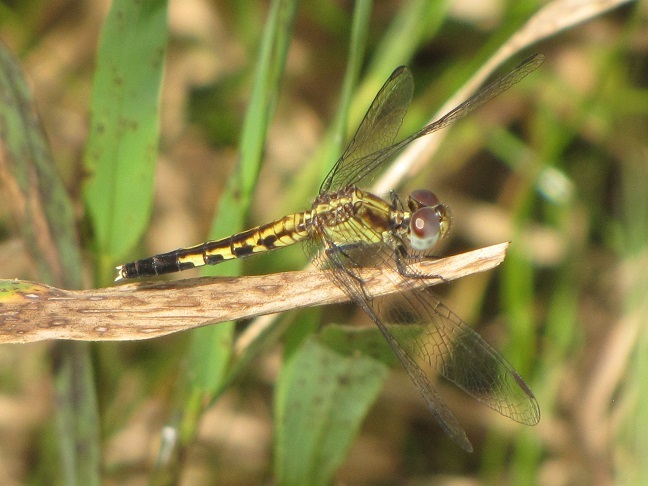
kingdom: Animalia
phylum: Arthropoda
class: Insecta
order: Odonata
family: Libellulidae
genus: Erythrodiplax
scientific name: Erythrodiplax minuscula
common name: Little blue dragonlet
